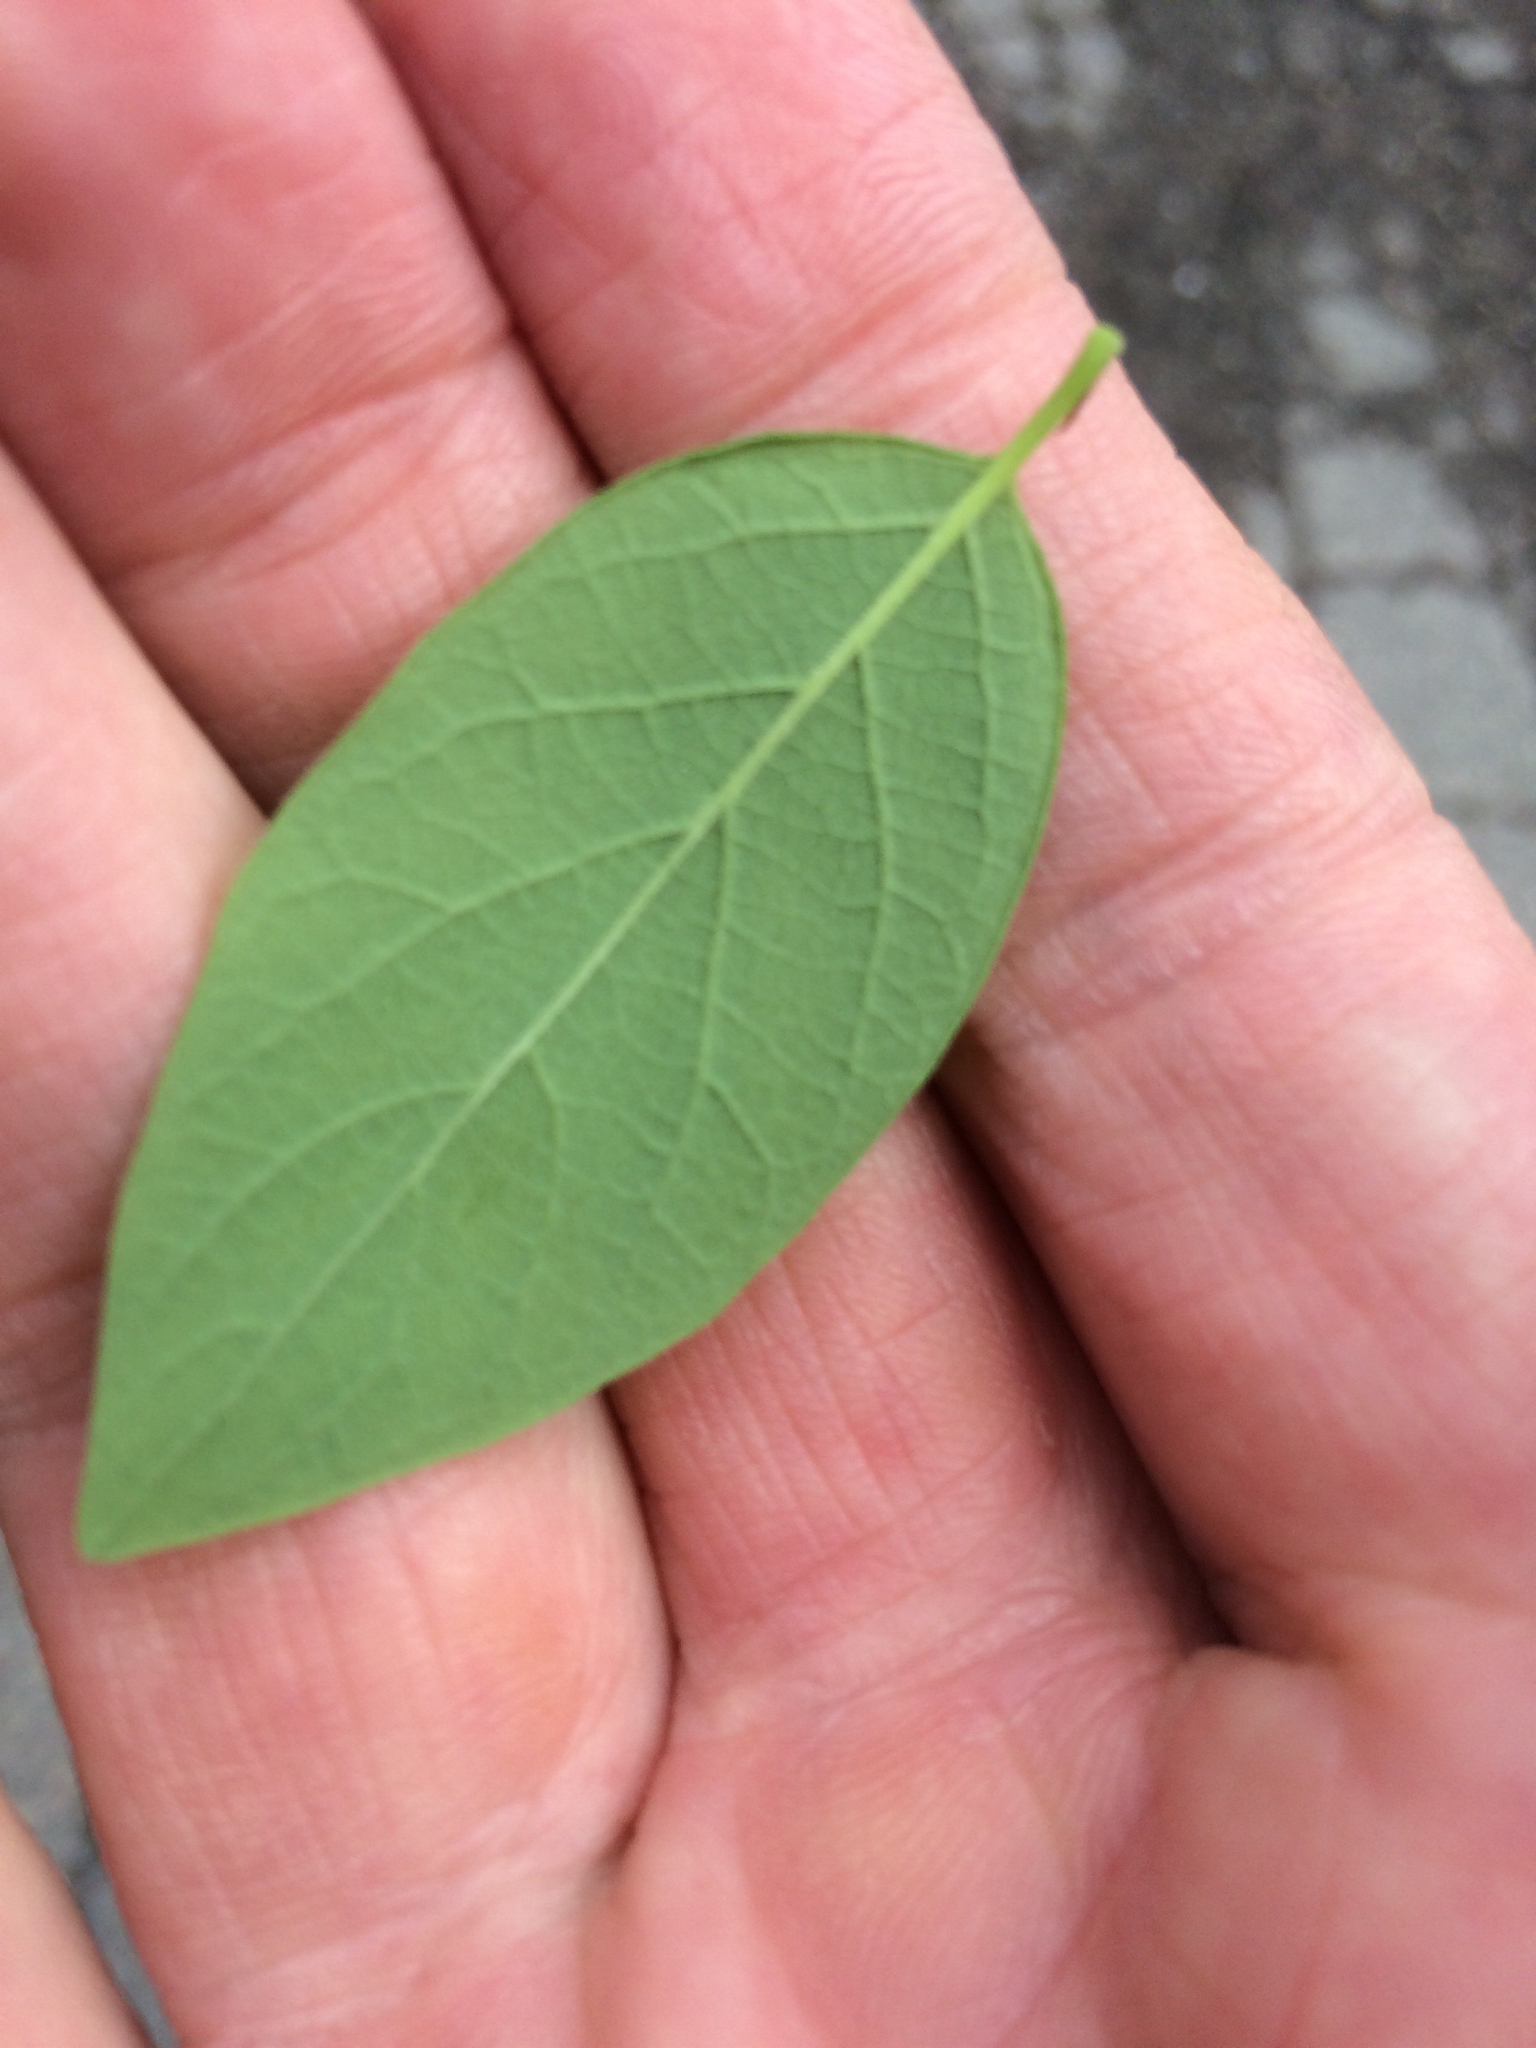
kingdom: Plantae
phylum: Tracheophyta
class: Magnoliopsida
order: Dipsacales
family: Caprifoliaceae
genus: Lonicera
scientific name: Lonicera tatarica
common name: Tatarian honeysuckle
